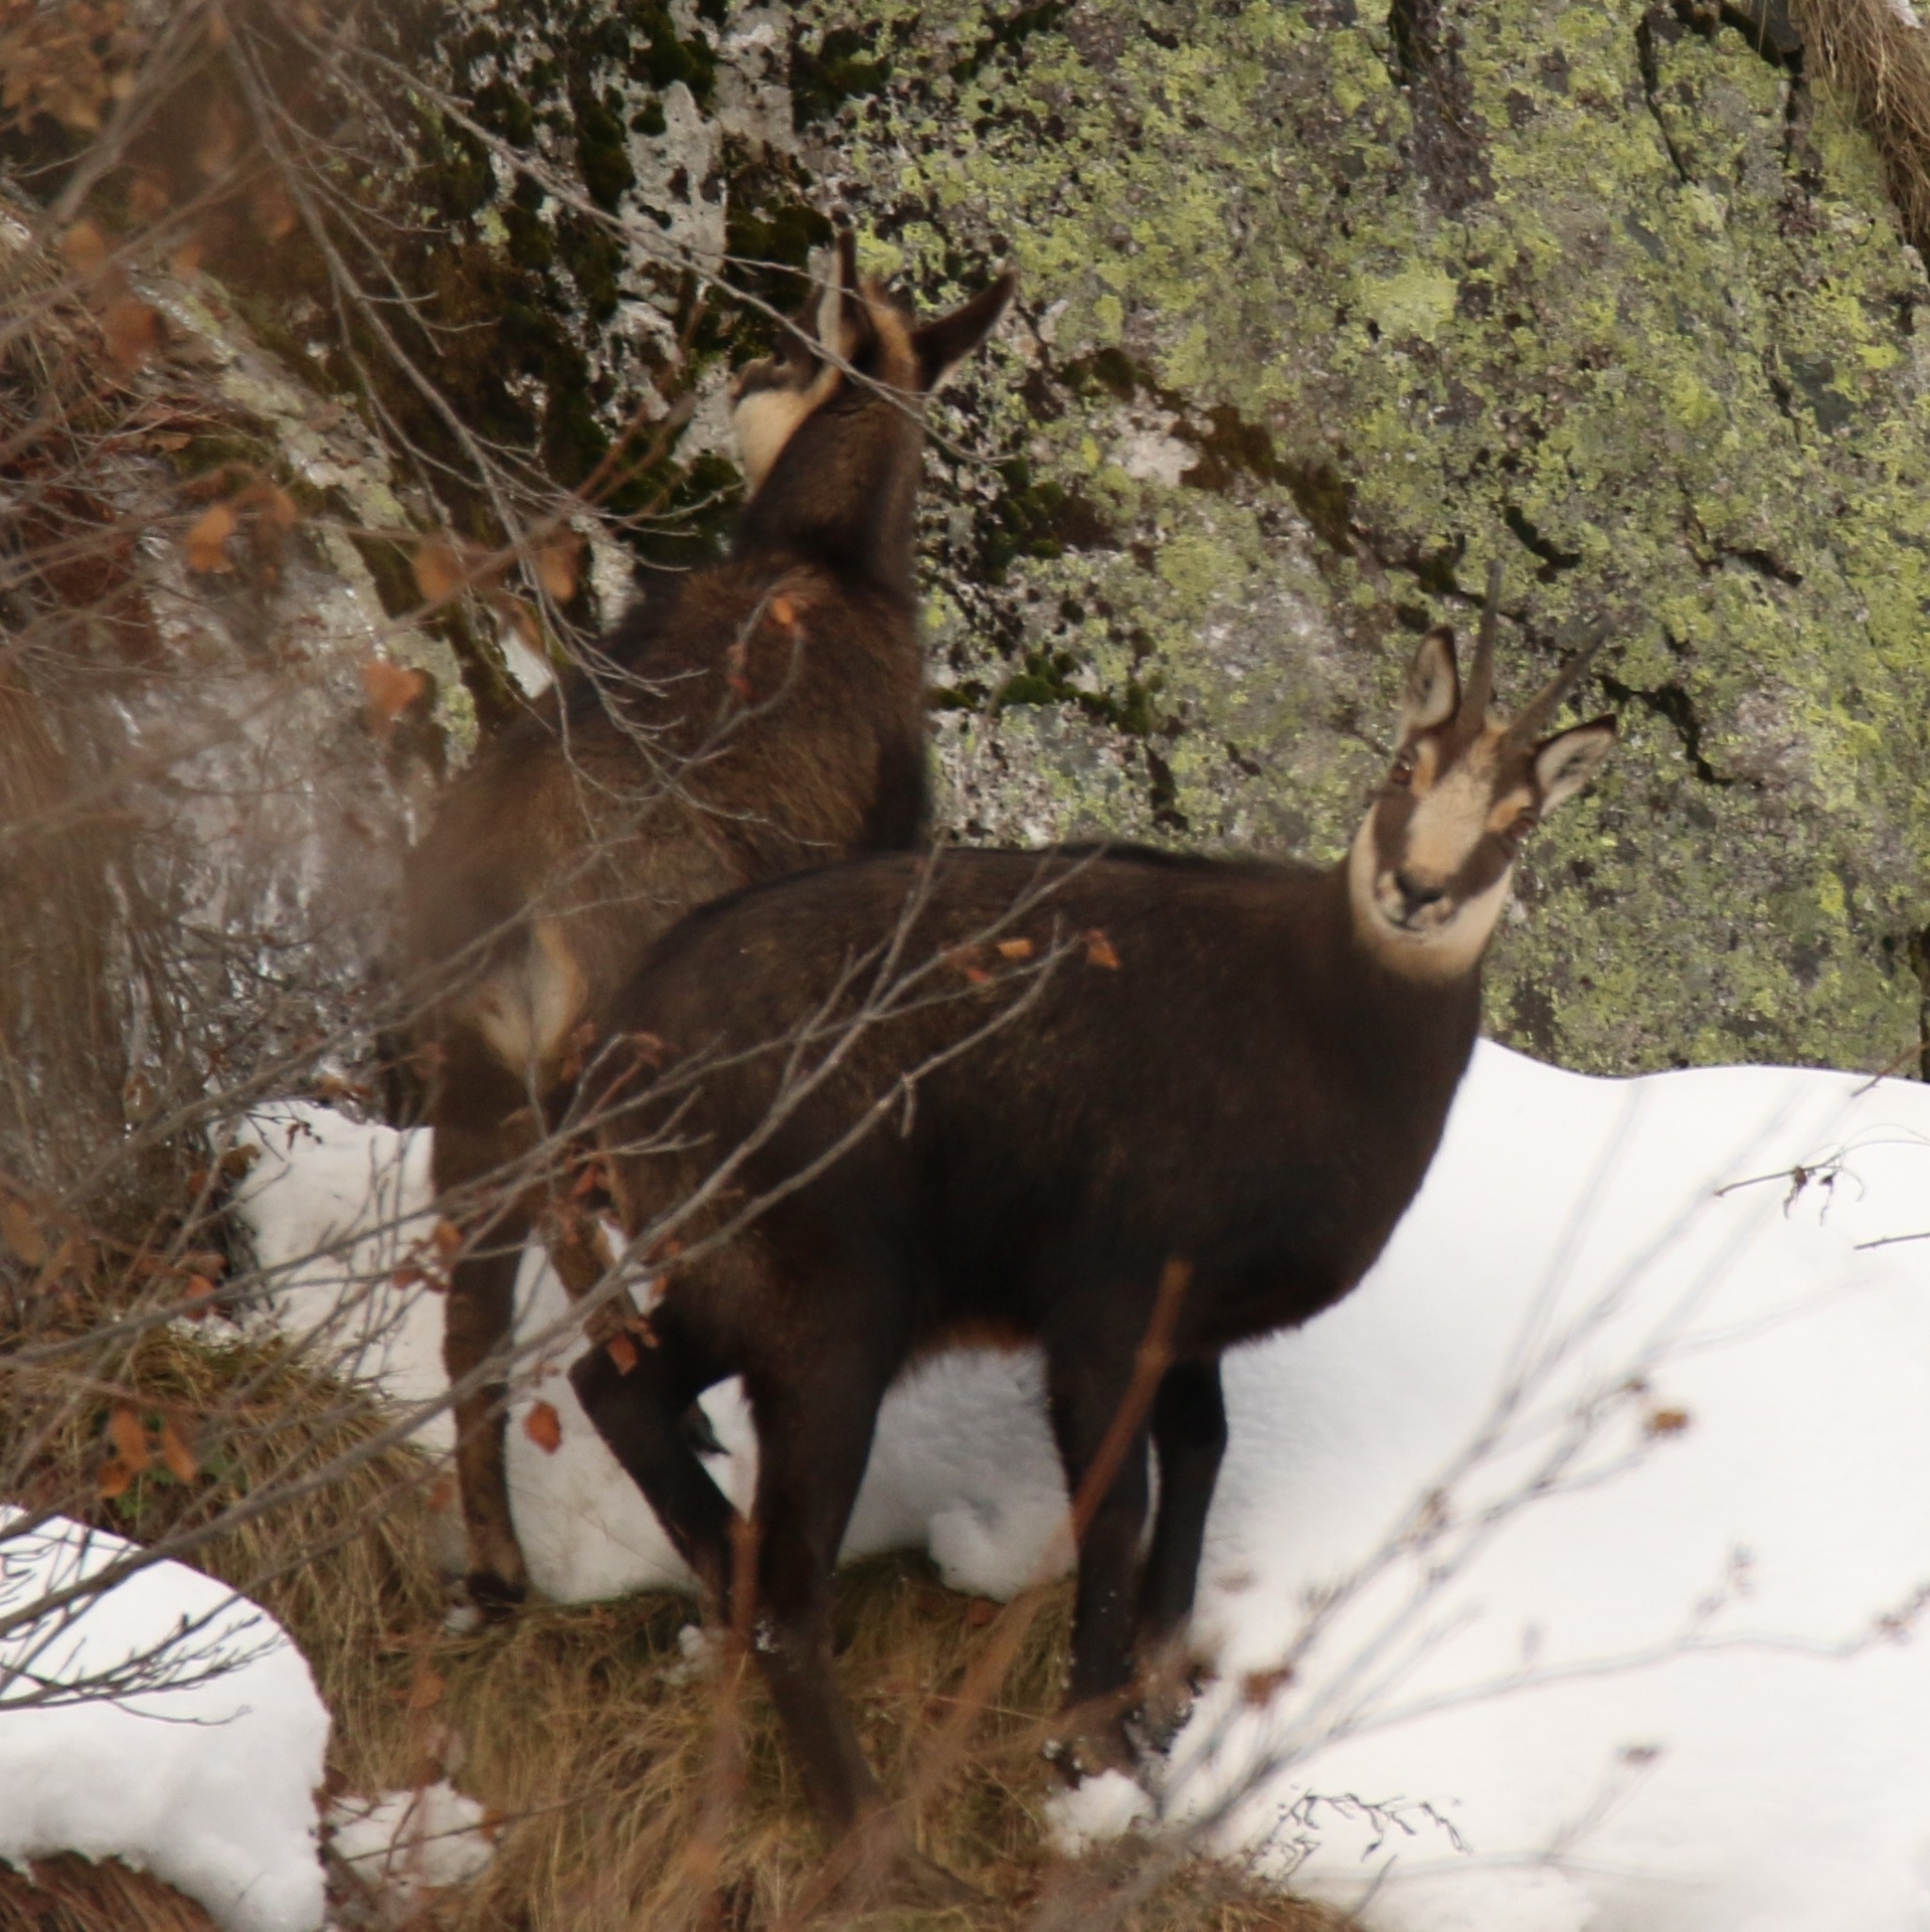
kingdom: Animalia
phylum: Chordata
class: Mammalia
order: Artiodactyla
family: Bovidae
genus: Rupicapra
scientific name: Rupicapra rupicapra
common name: Chamois
